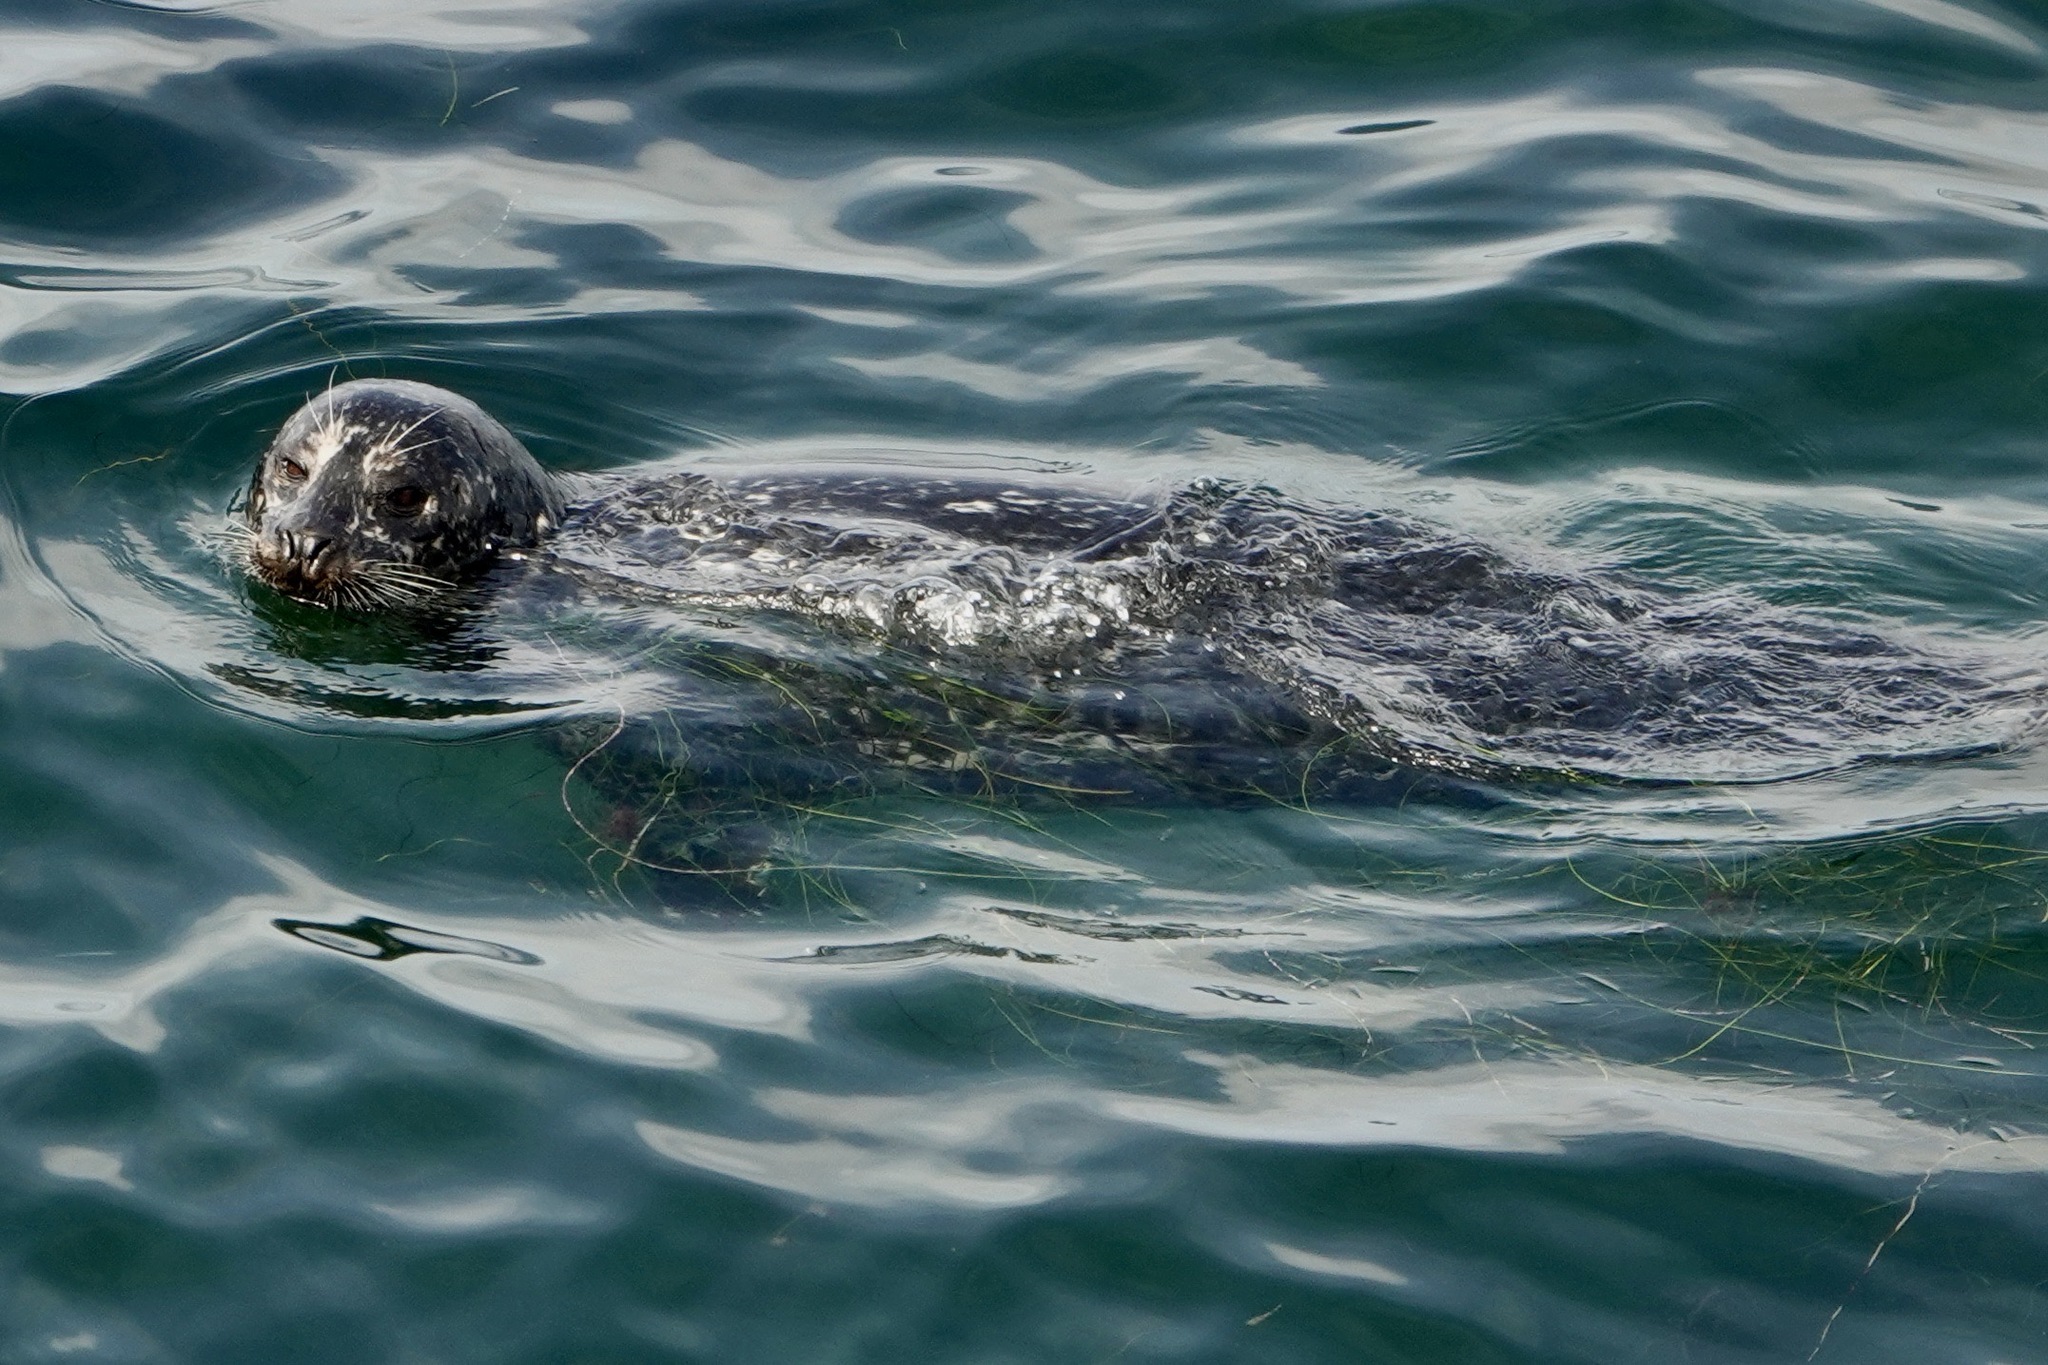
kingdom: Animalia
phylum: Chordata
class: Mammalia
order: Carnivora
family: Phocidae
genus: Phoca
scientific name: Phoca vitulina
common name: Harbor seal
